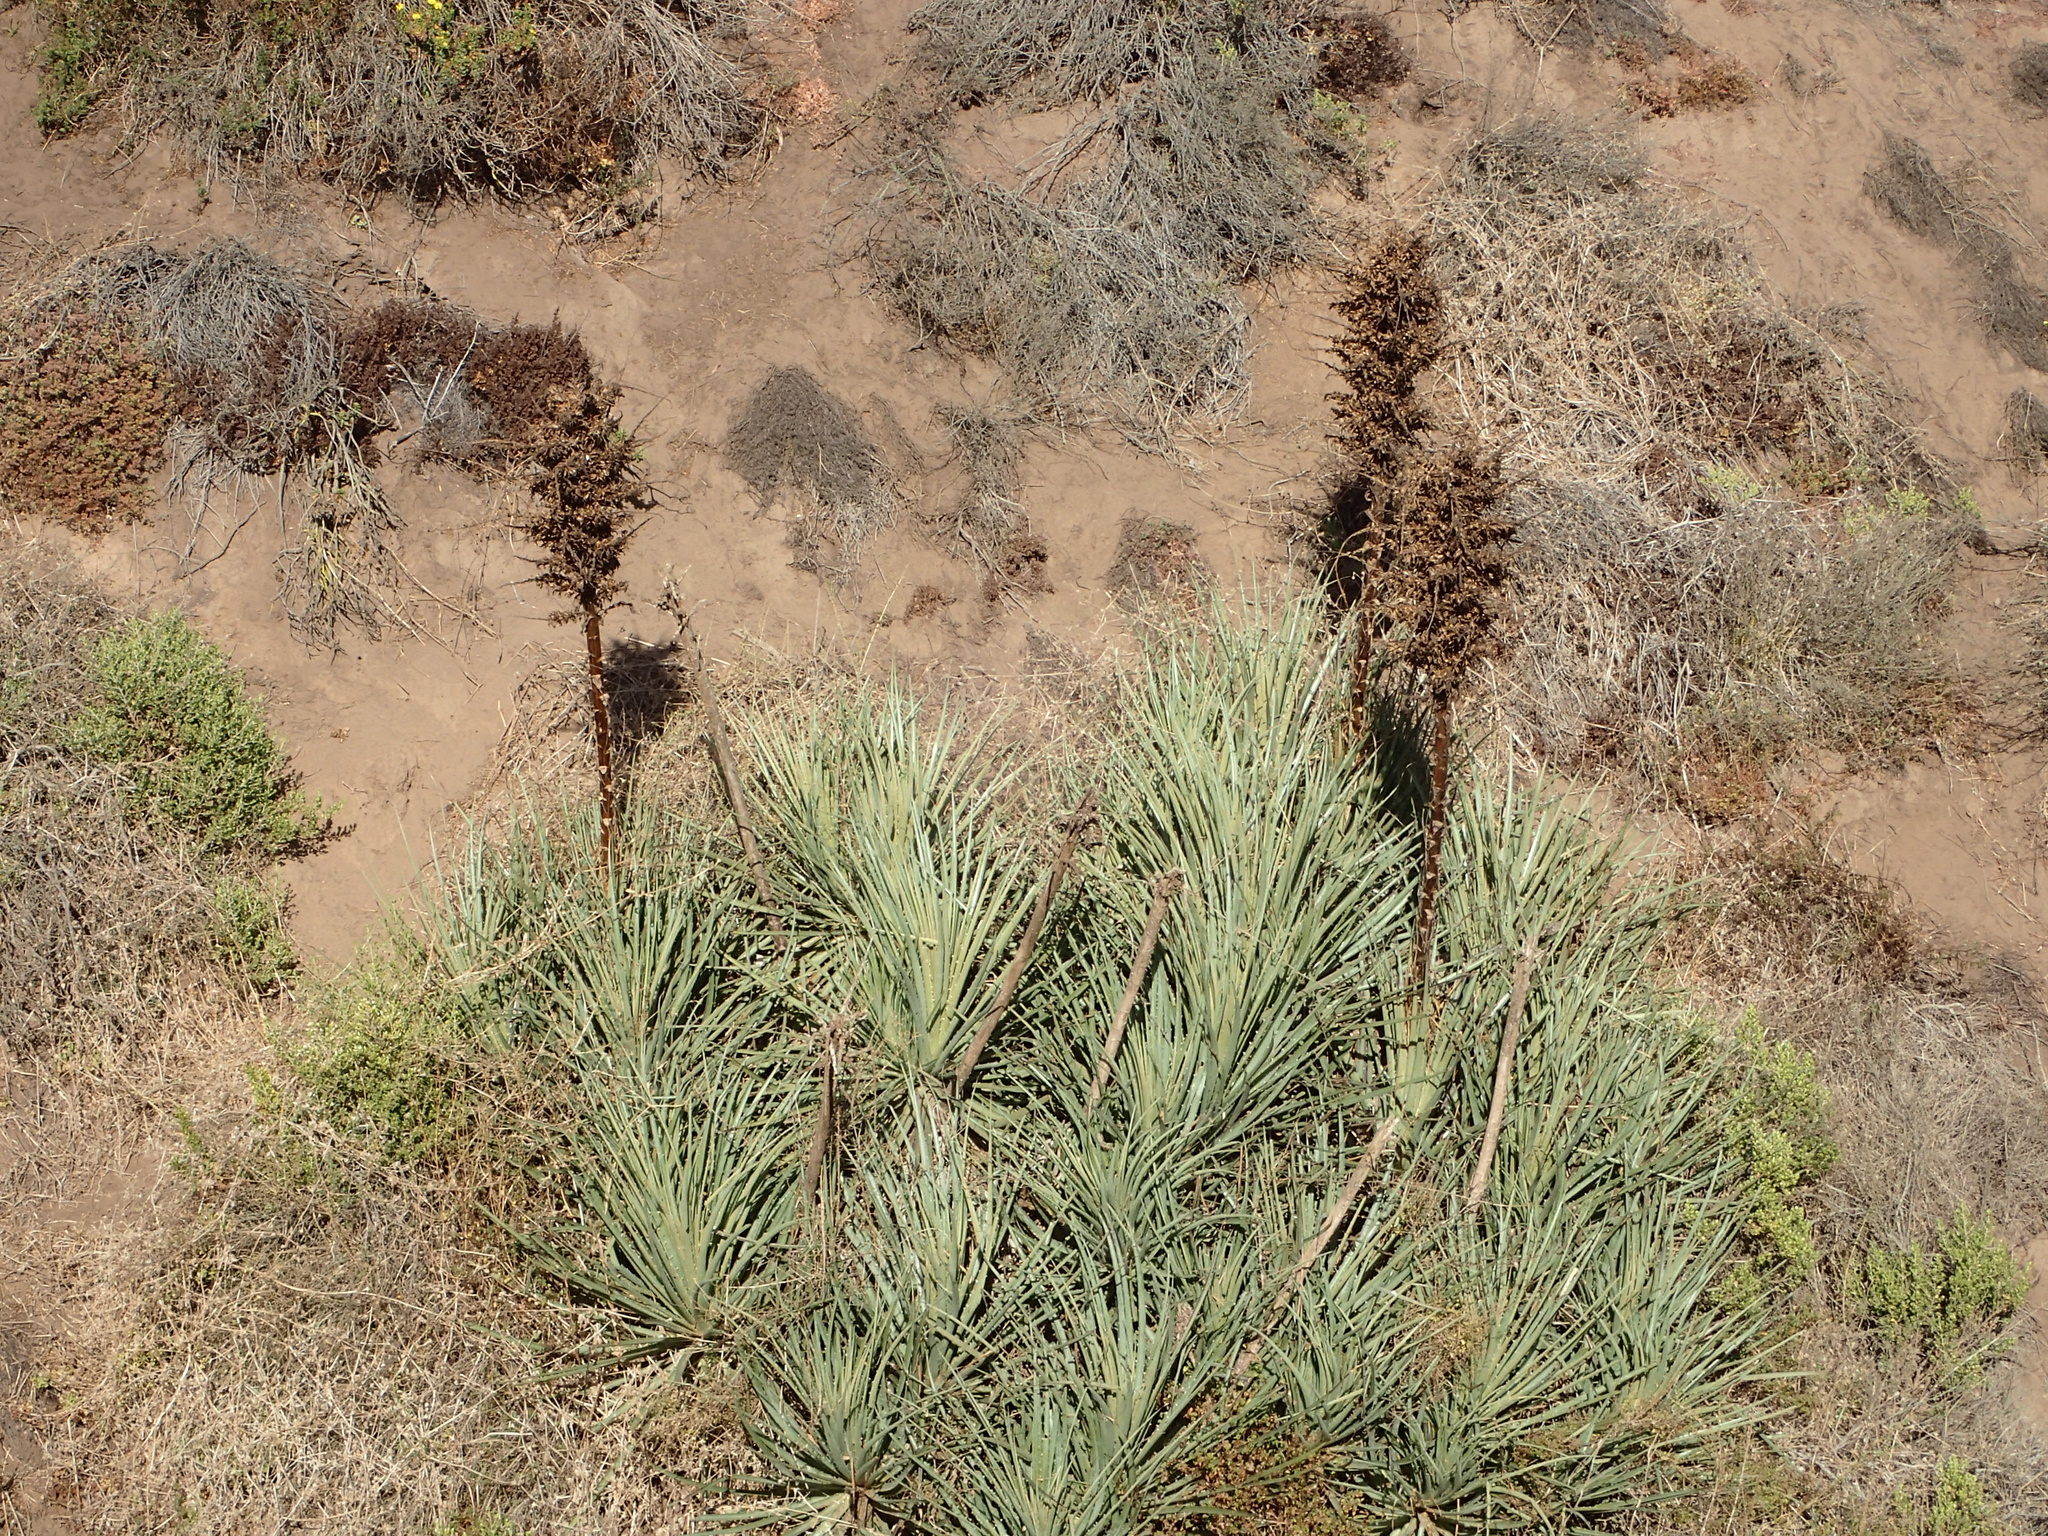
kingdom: Plantae
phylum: Tracheophyta
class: Liliopsida
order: Poales
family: Bromeliaceae
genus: Puya
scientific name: Puya chilensis
